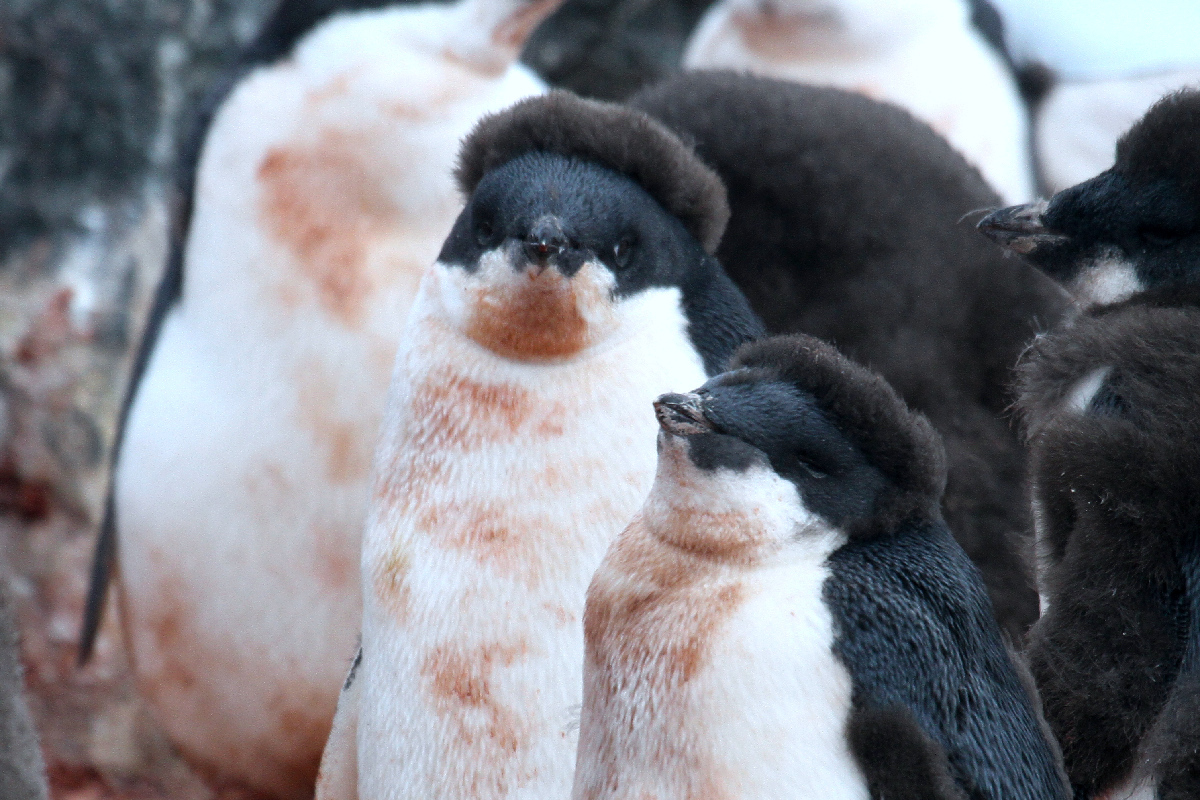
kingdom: Animalia
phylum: Chordata
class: Aves
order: Sphenisciformes
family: Spheniscidae
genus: Pygoscelis
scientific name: Pygoscelis adeliae
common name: Adelie penguin
